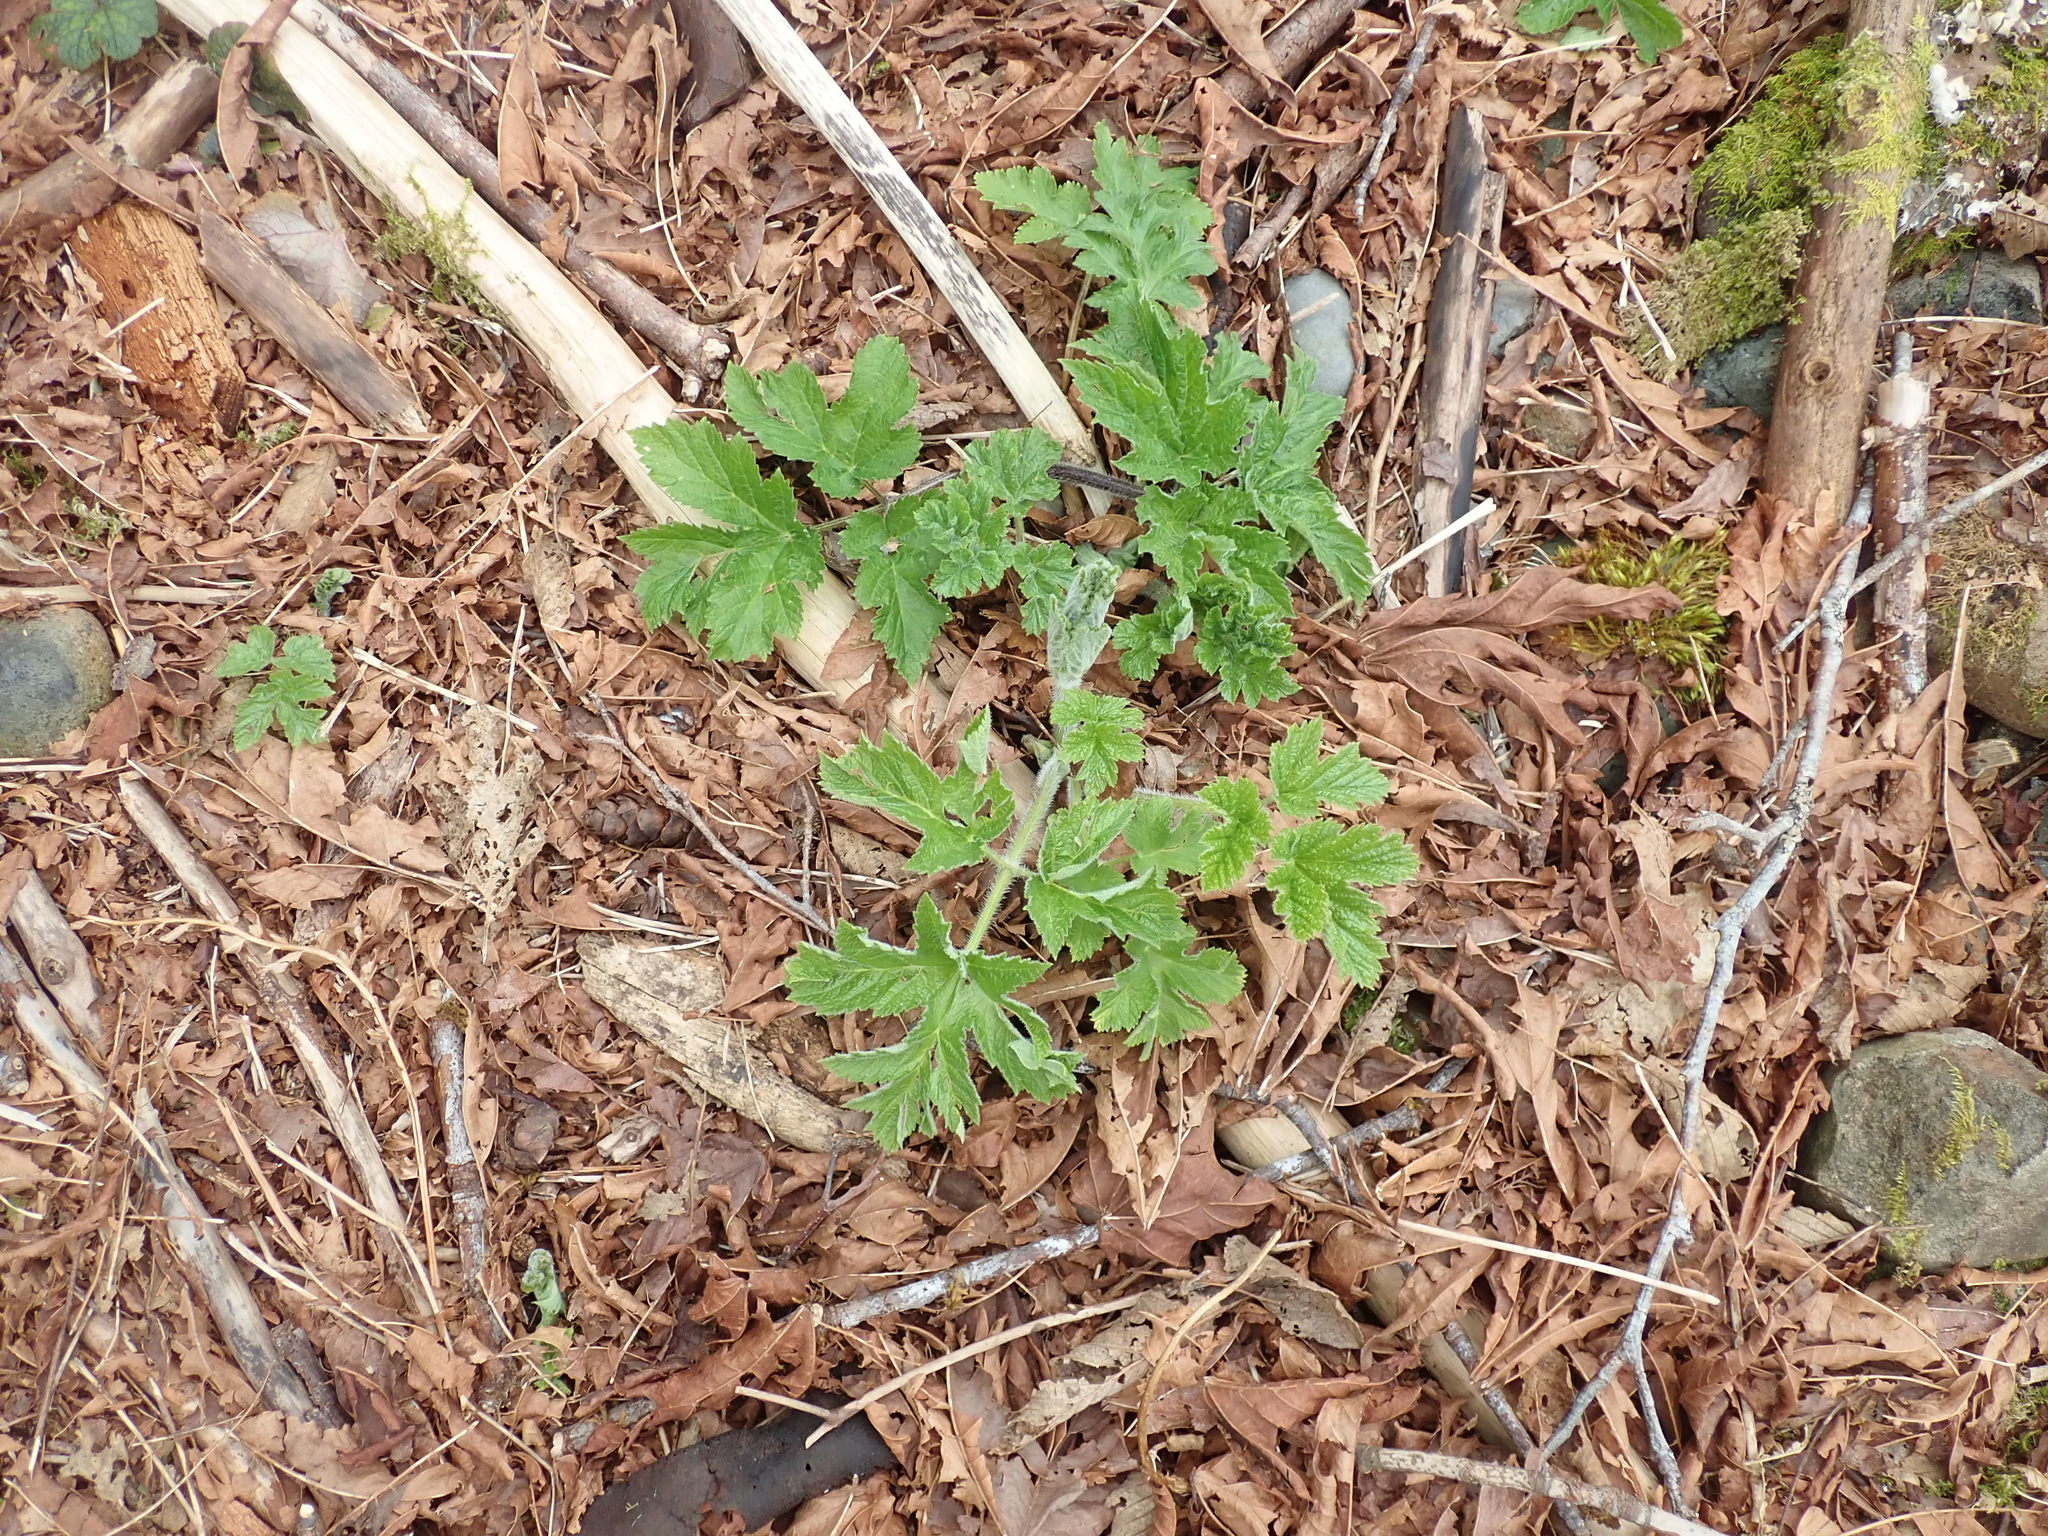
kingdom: Plantae
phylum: Tracheophyta
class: Magnoliopsida
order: Apiales
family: Apiaceae
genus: Heracleum
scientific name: Heracleum maximum
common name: American cow parsnip
